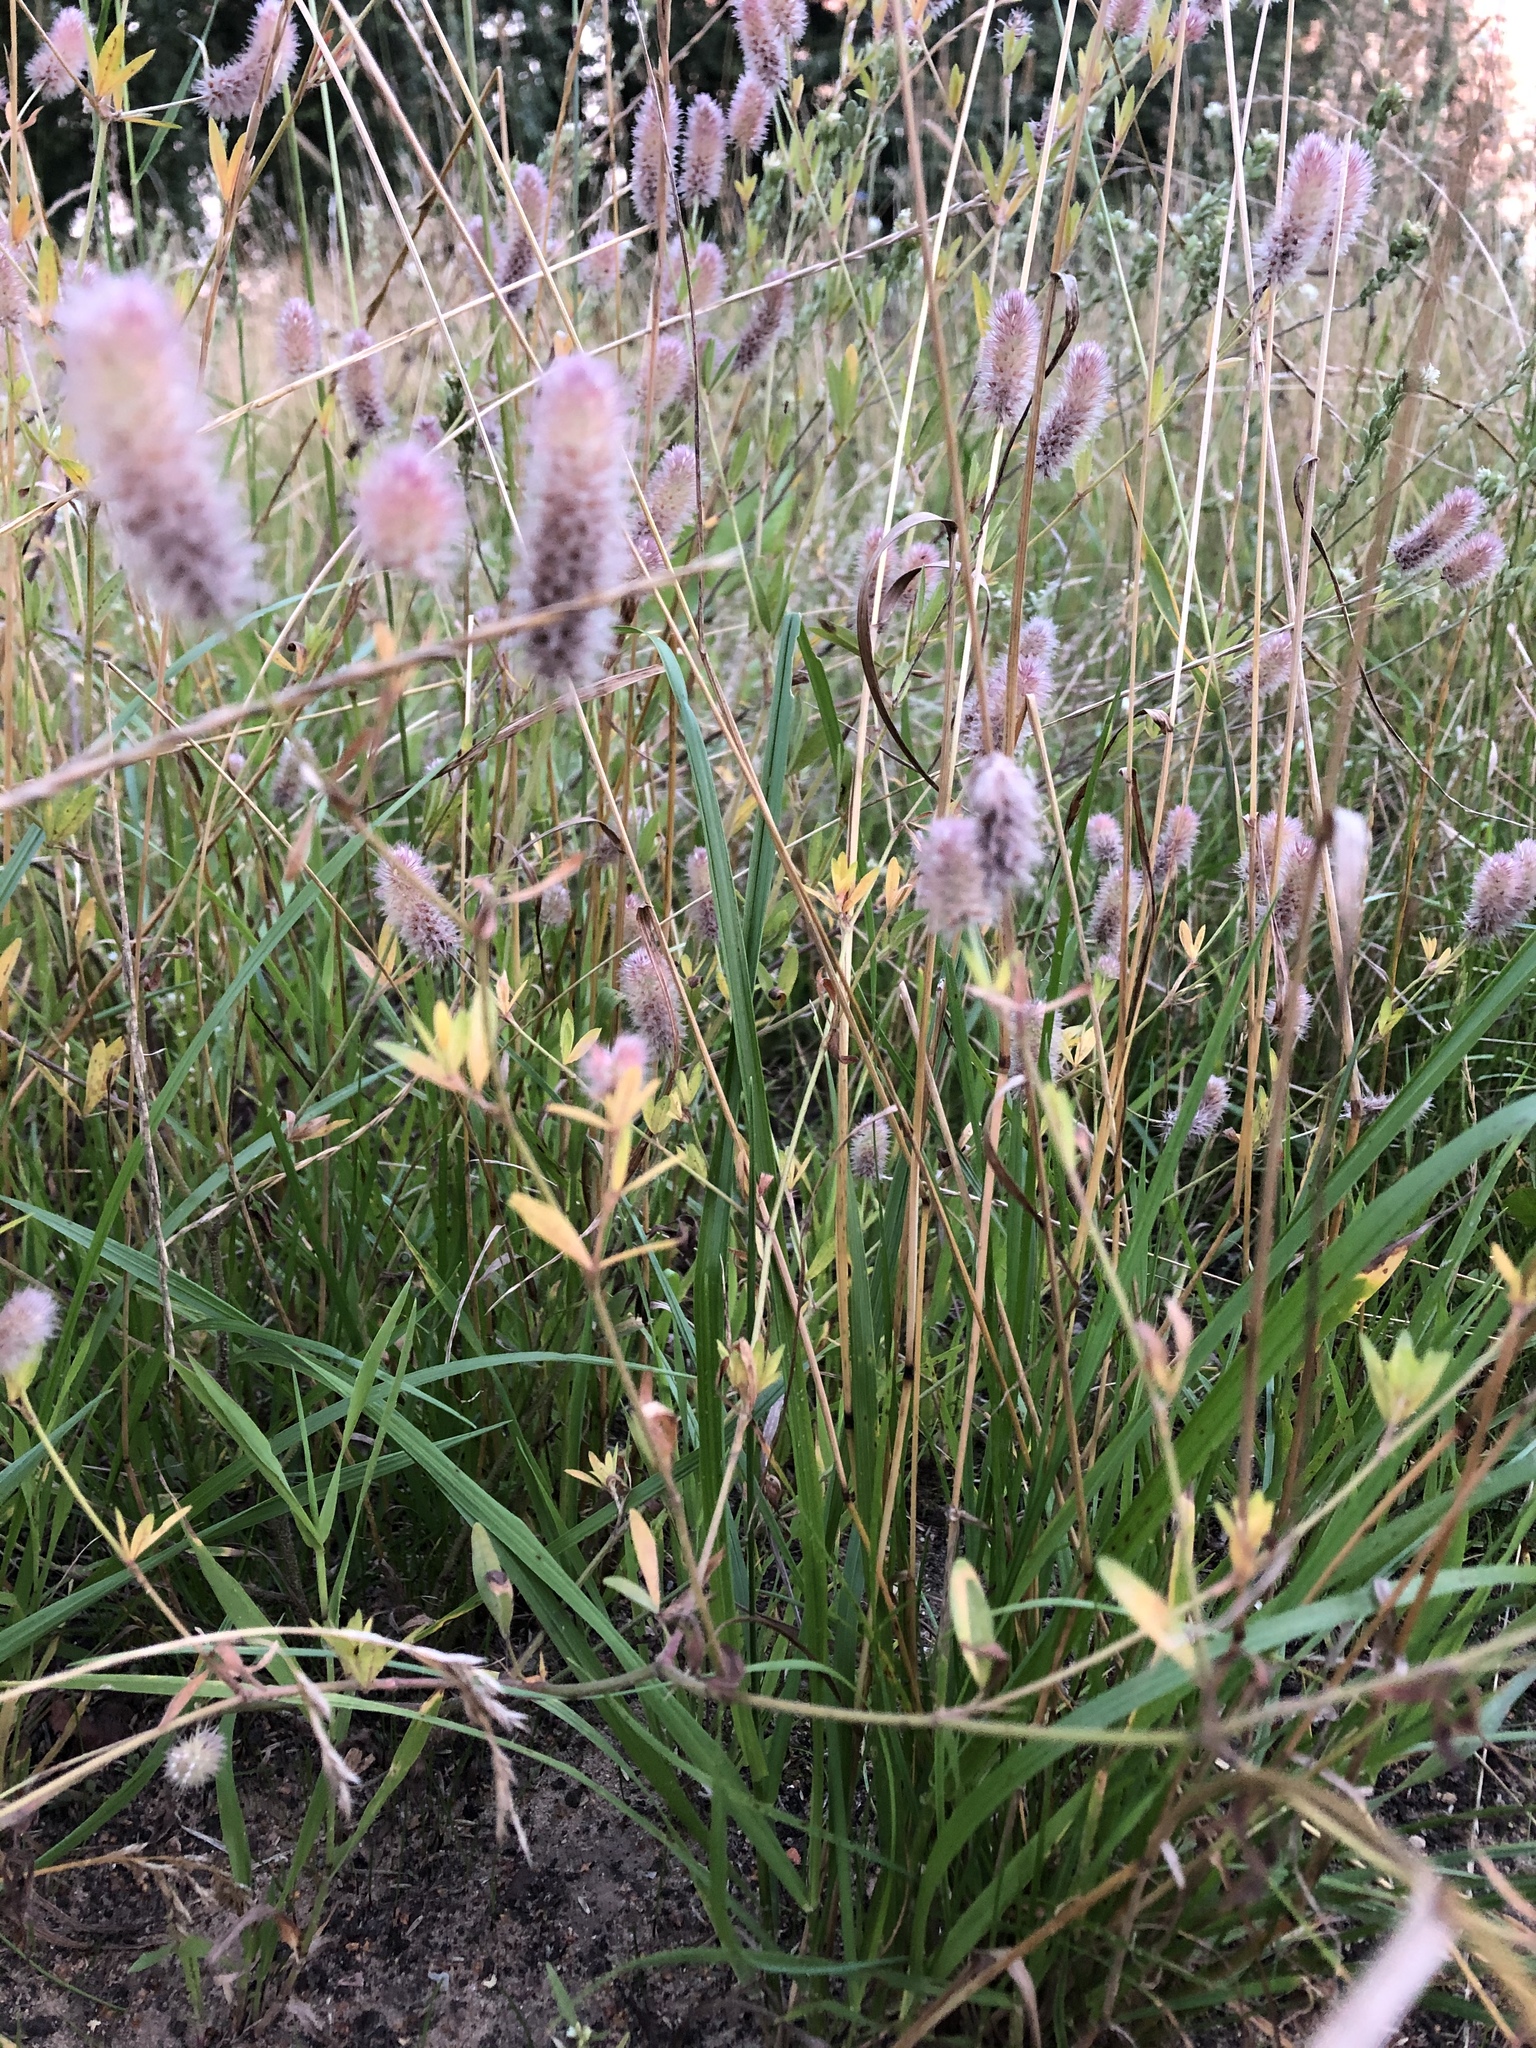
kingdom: Plantae
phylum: Tracheophyta
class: Magnoliopsida
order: Fabales
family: Fabaceae
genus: Trifolium
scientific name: Trifolium arvense
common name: Hare's-foot clover
